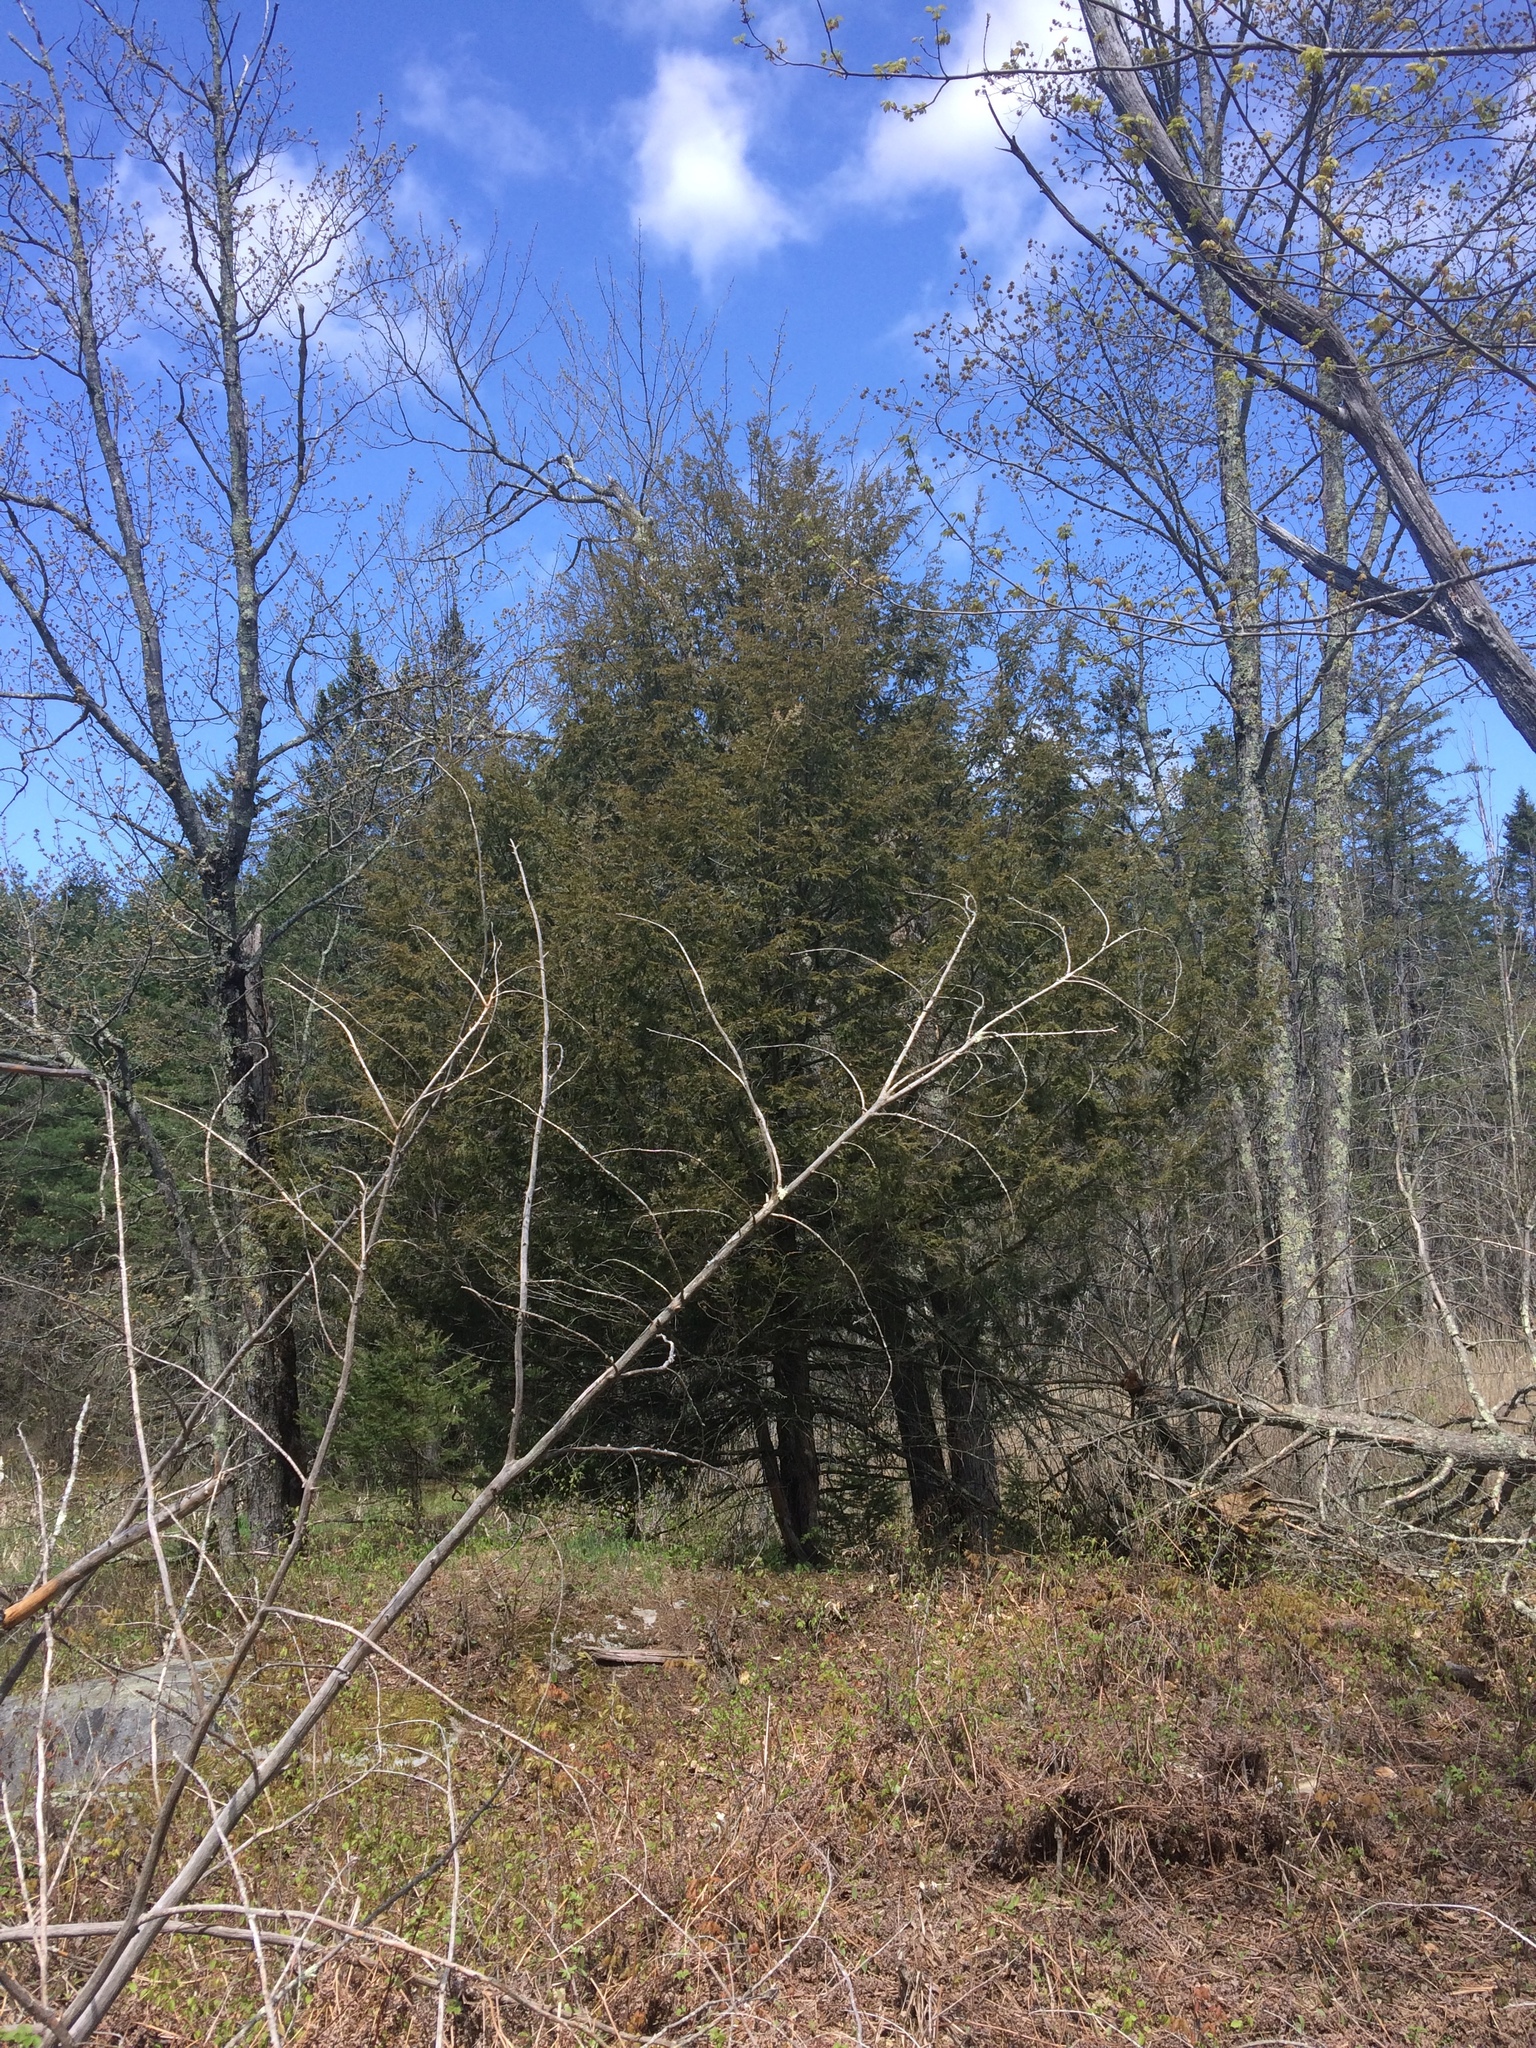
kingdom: Plantae
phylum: Tracheophyta
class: Pinopsida
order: Pinales
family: Pinaceae
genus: Tsuga
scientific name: Tsuga canadensis
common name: Eastern hemlock
